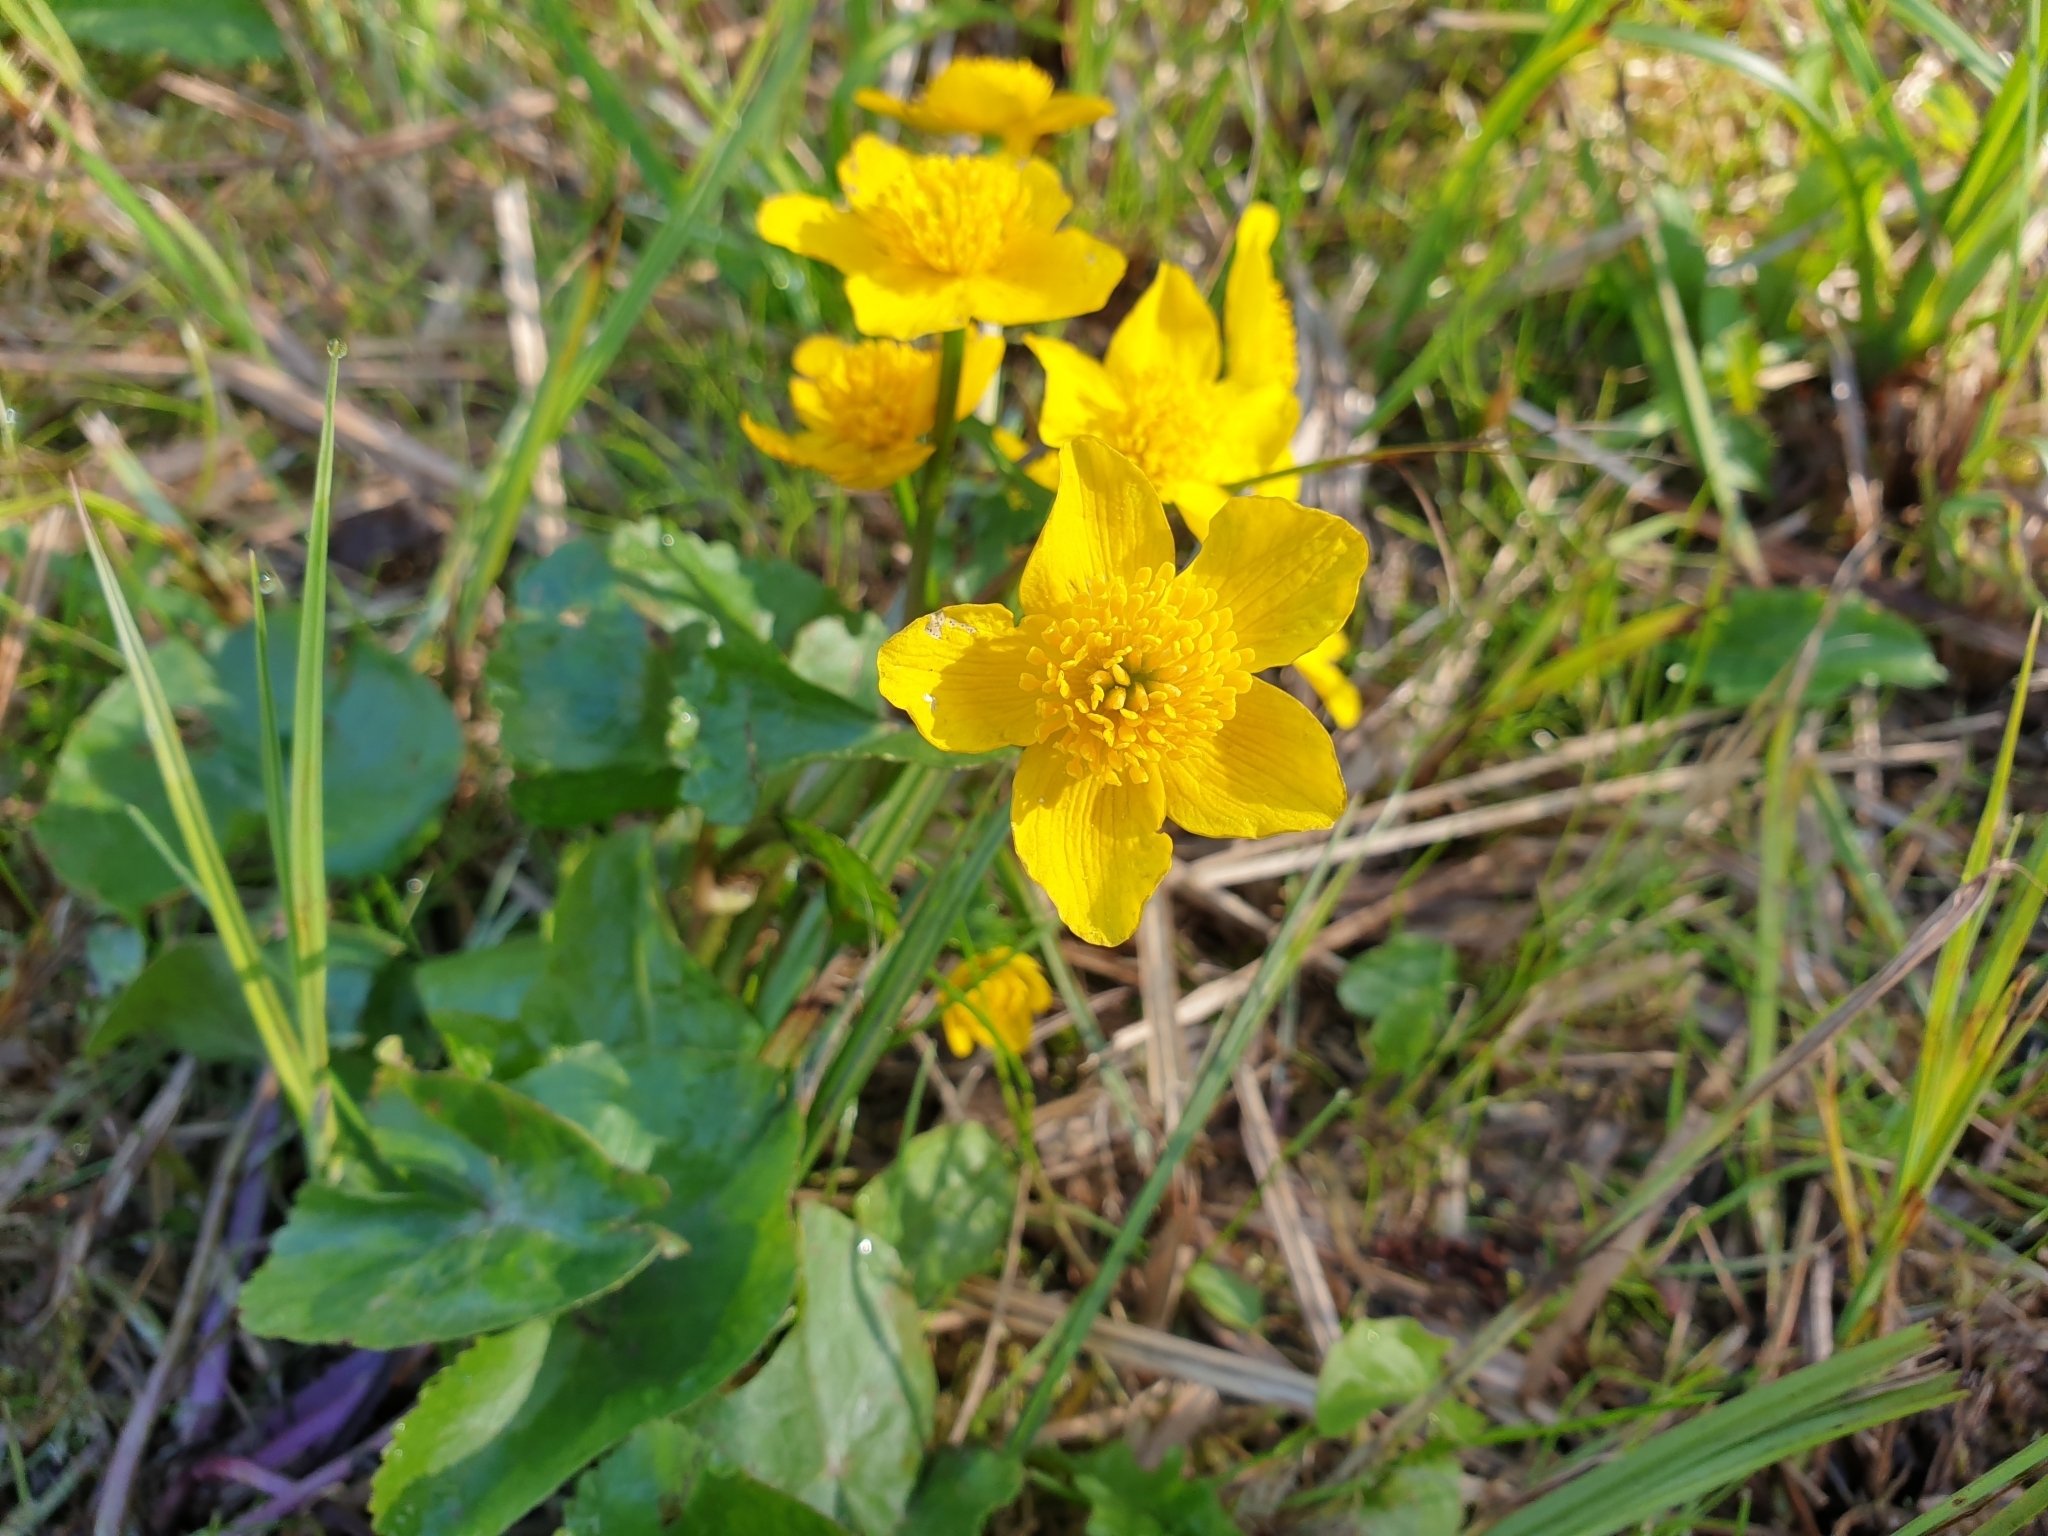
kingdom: Plantae
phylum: Tracheophyta
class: Magnoliopsida
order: Ranunculales
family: Ranunculaceae
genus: Caltha
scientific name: Caltha palustris
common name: Marsh marigold
